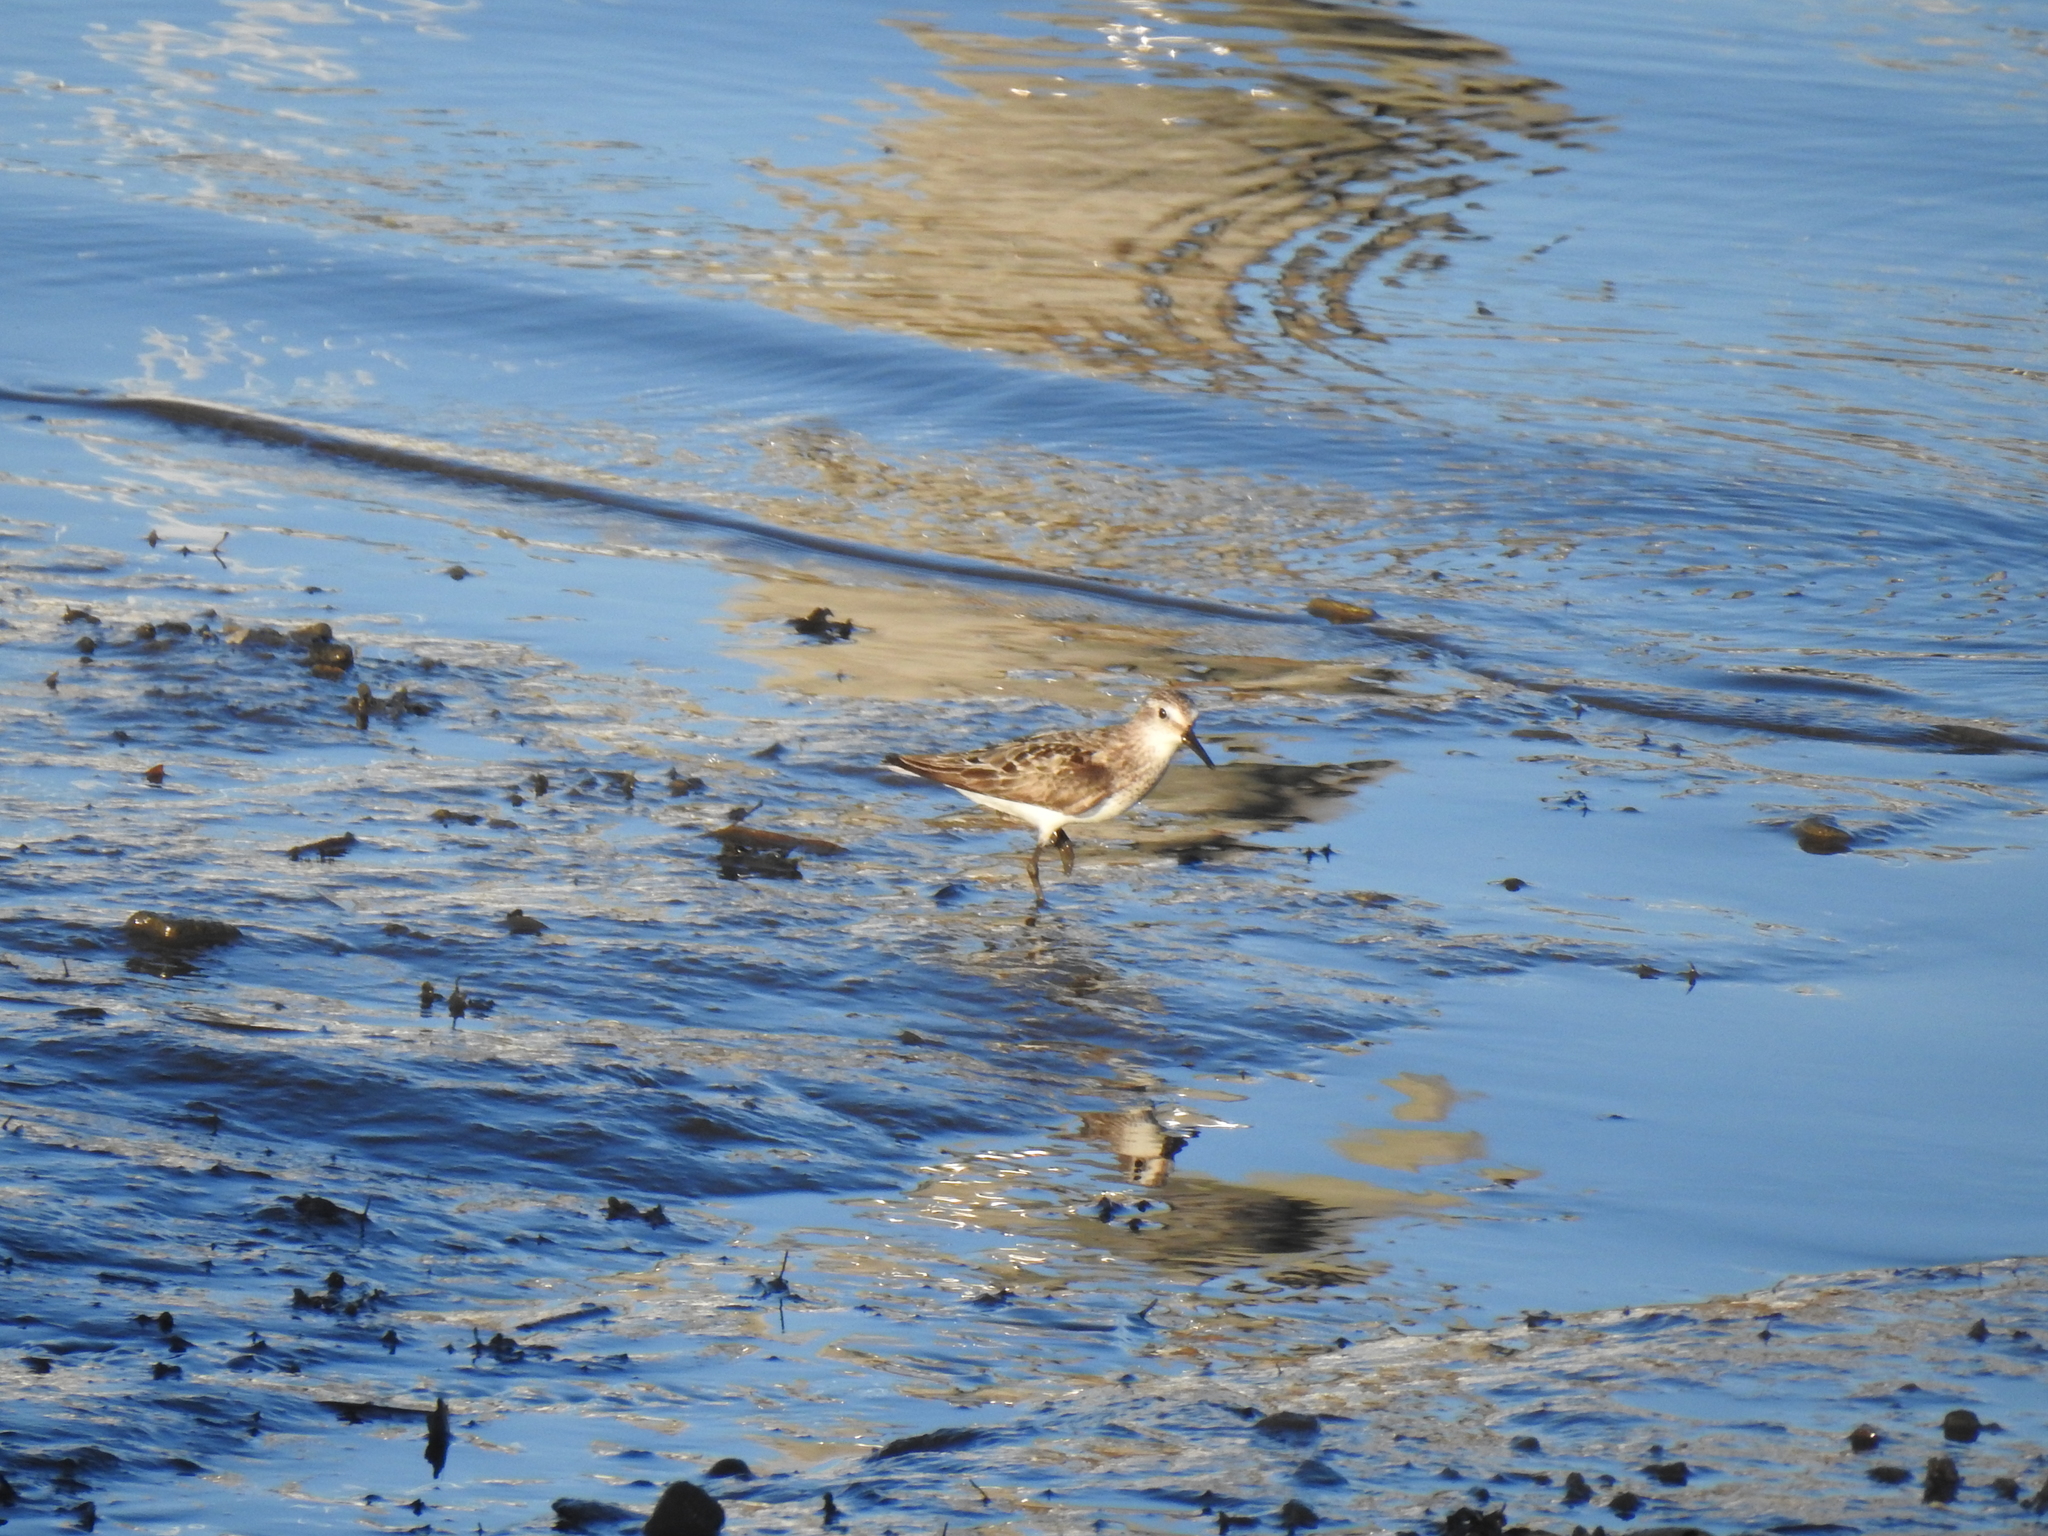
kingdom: Animalia
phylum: Chordata
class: Aves
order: Charadriiformes
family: Scolopacidae
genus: Calidris
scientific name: Calidris minutilla
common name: Least sandpiper
